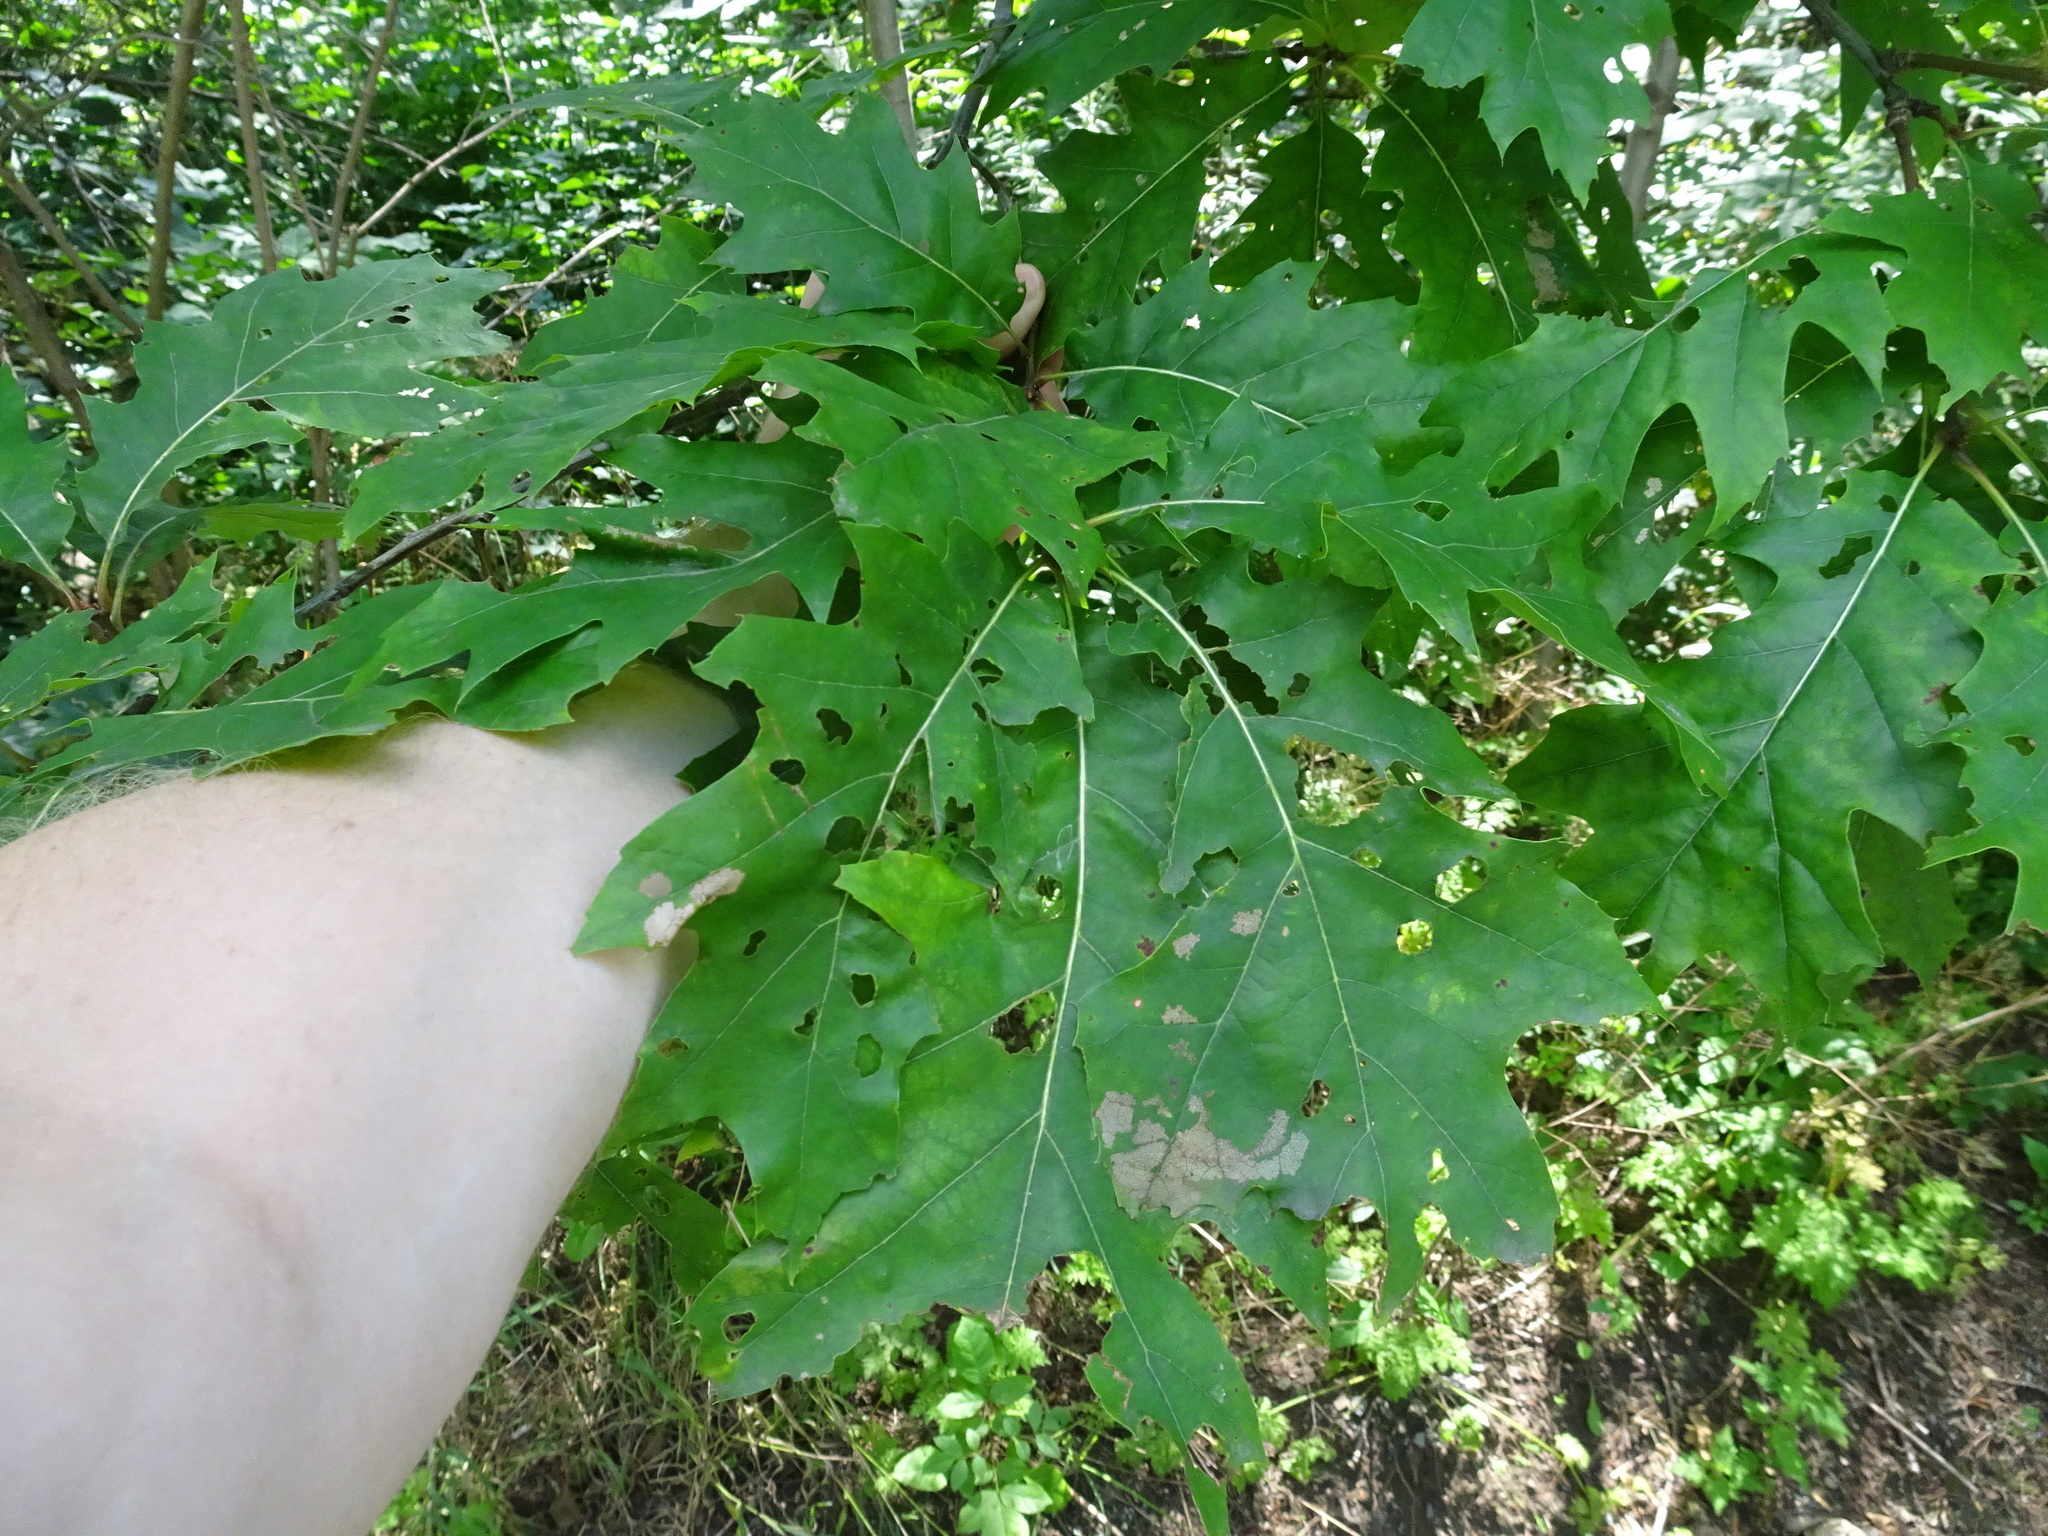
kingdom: Plantae
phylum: Tracheophyta
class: Magnoliopsida
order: Fagales
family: Fagaceae
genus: Quercus
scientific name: Quercus rubra
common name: Red oak
